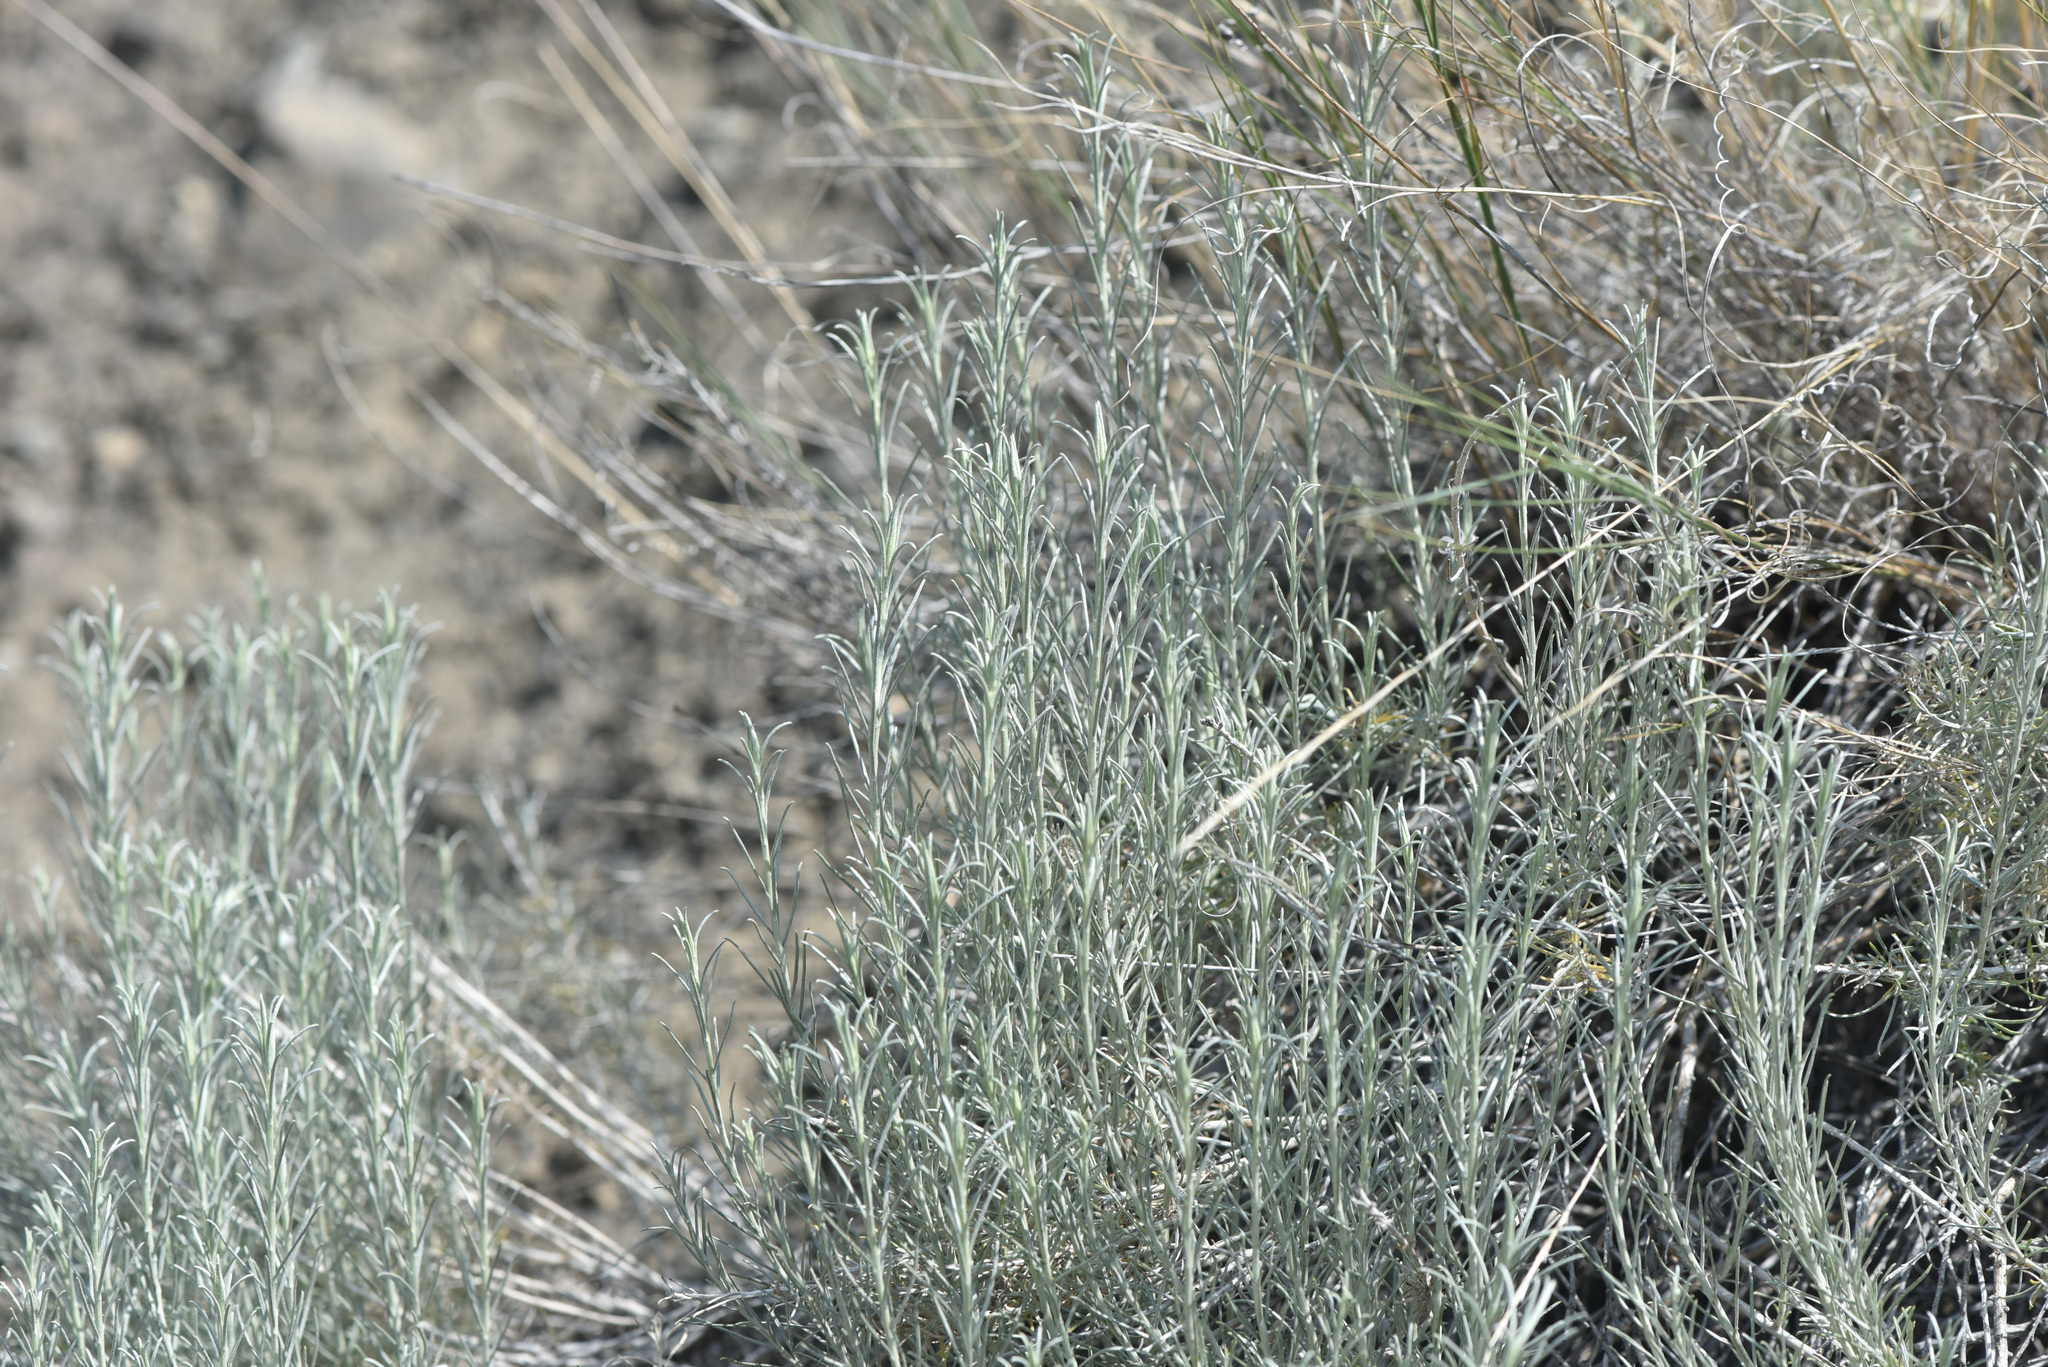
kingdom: Plantae
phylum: Tracheophyta
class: Magnoliopsida
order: Asterales
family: Asteraceae
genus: Ericameria
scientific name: Ericameria nauseosa
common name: Rubber rabbitbrush
